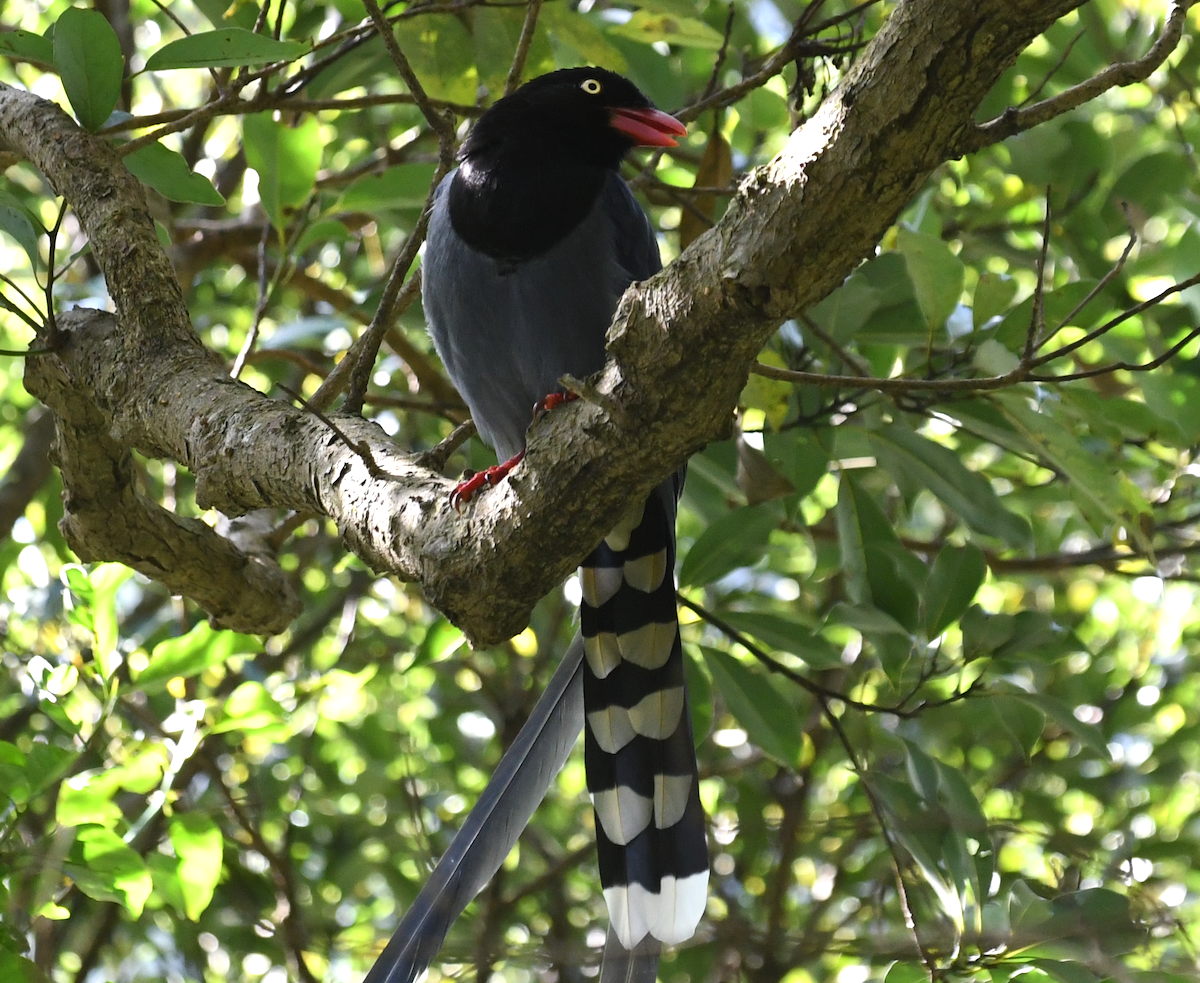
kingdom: Animalia
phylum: Chordata
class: Aves
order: Passeriformes
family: Corvidae
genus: Urocissa
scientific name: Urocissa caerulea
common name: Taiwan blue magpie
